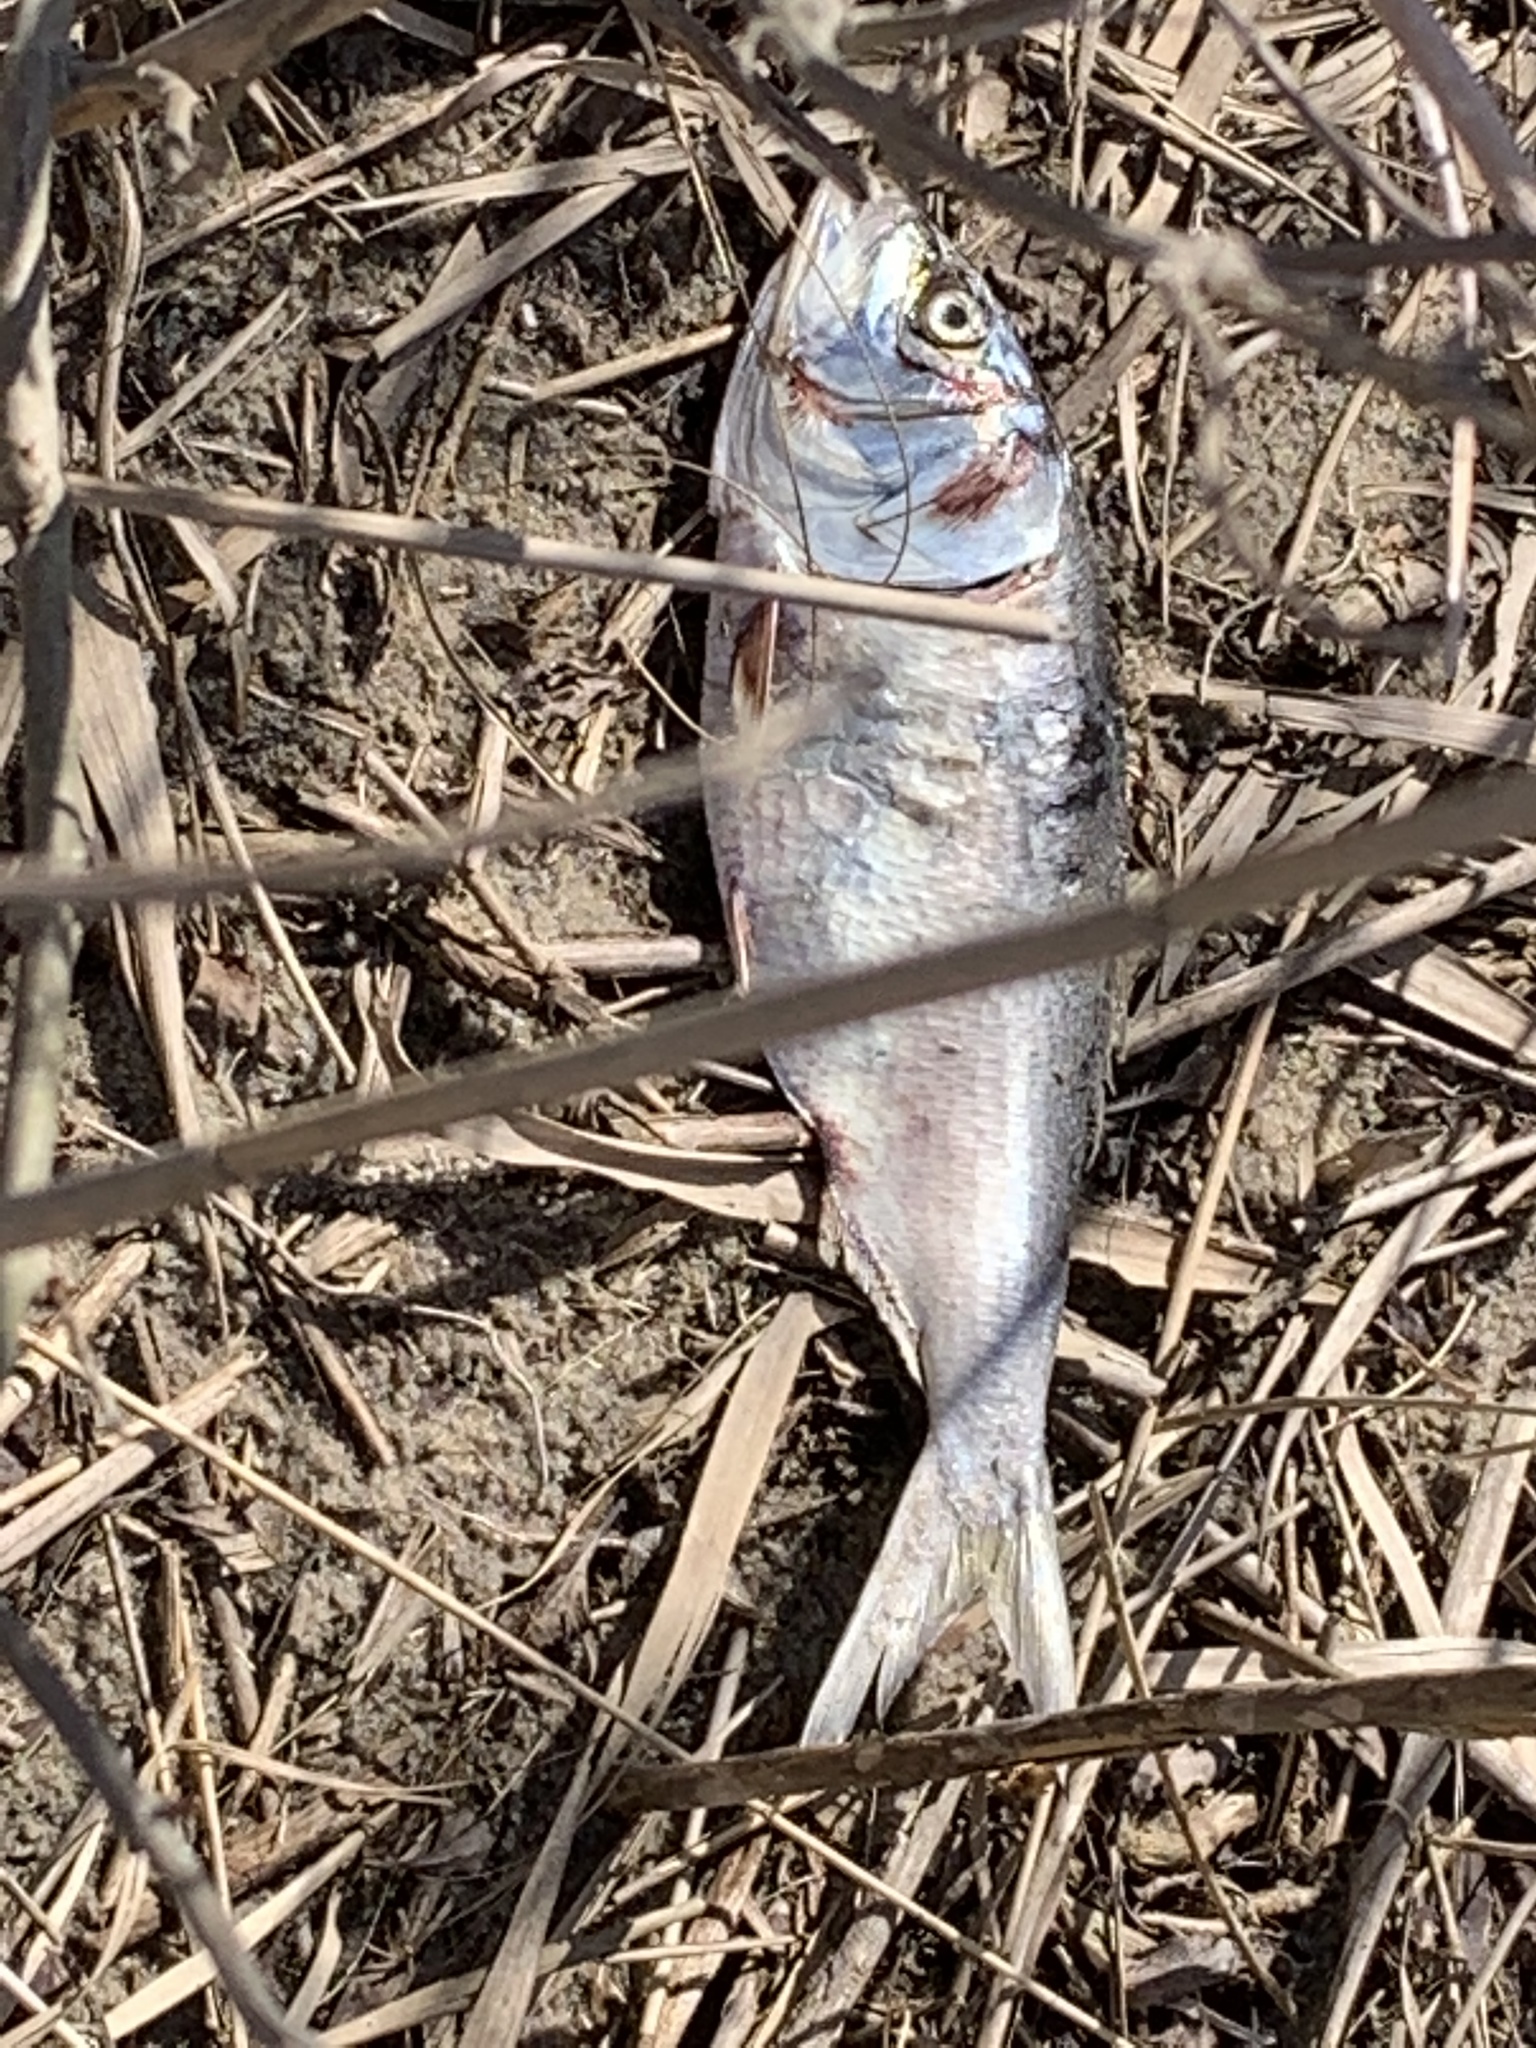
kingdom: Animalia
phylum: Chordata
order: Clupeiformes
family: Clupeidae
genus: Brevoortia
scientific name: Brevoortia tyrannus
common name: Atlantic menhaden
